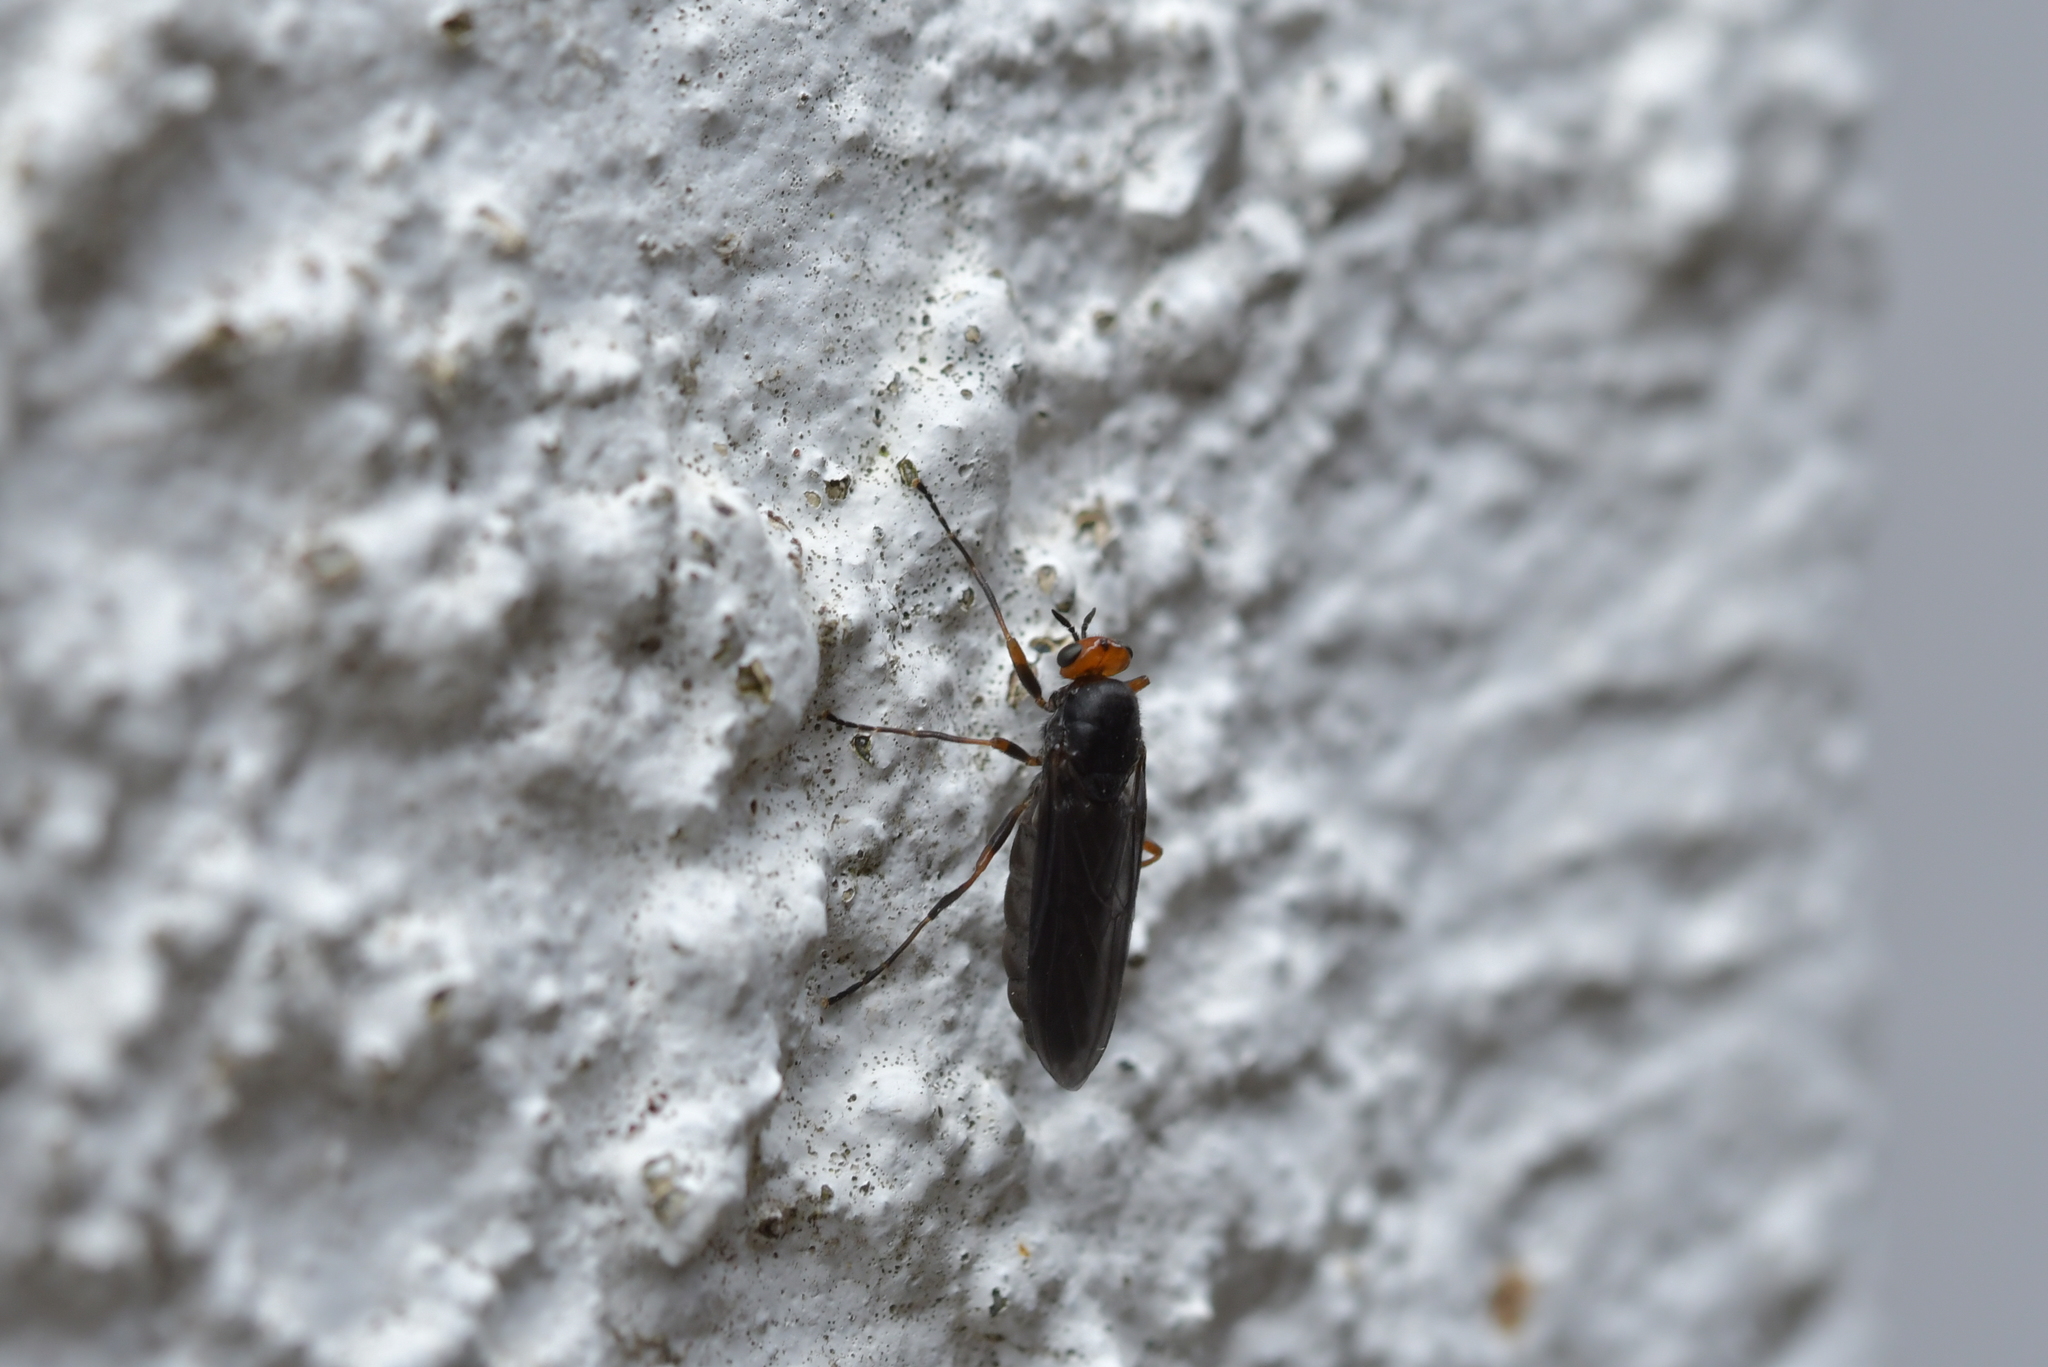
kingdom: Animalia
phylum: Arthropoda
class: Insecta
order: Diptera
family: Stratiomyidae
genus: Inopus
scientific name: Inopus rubriceps
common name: Soldier fly
